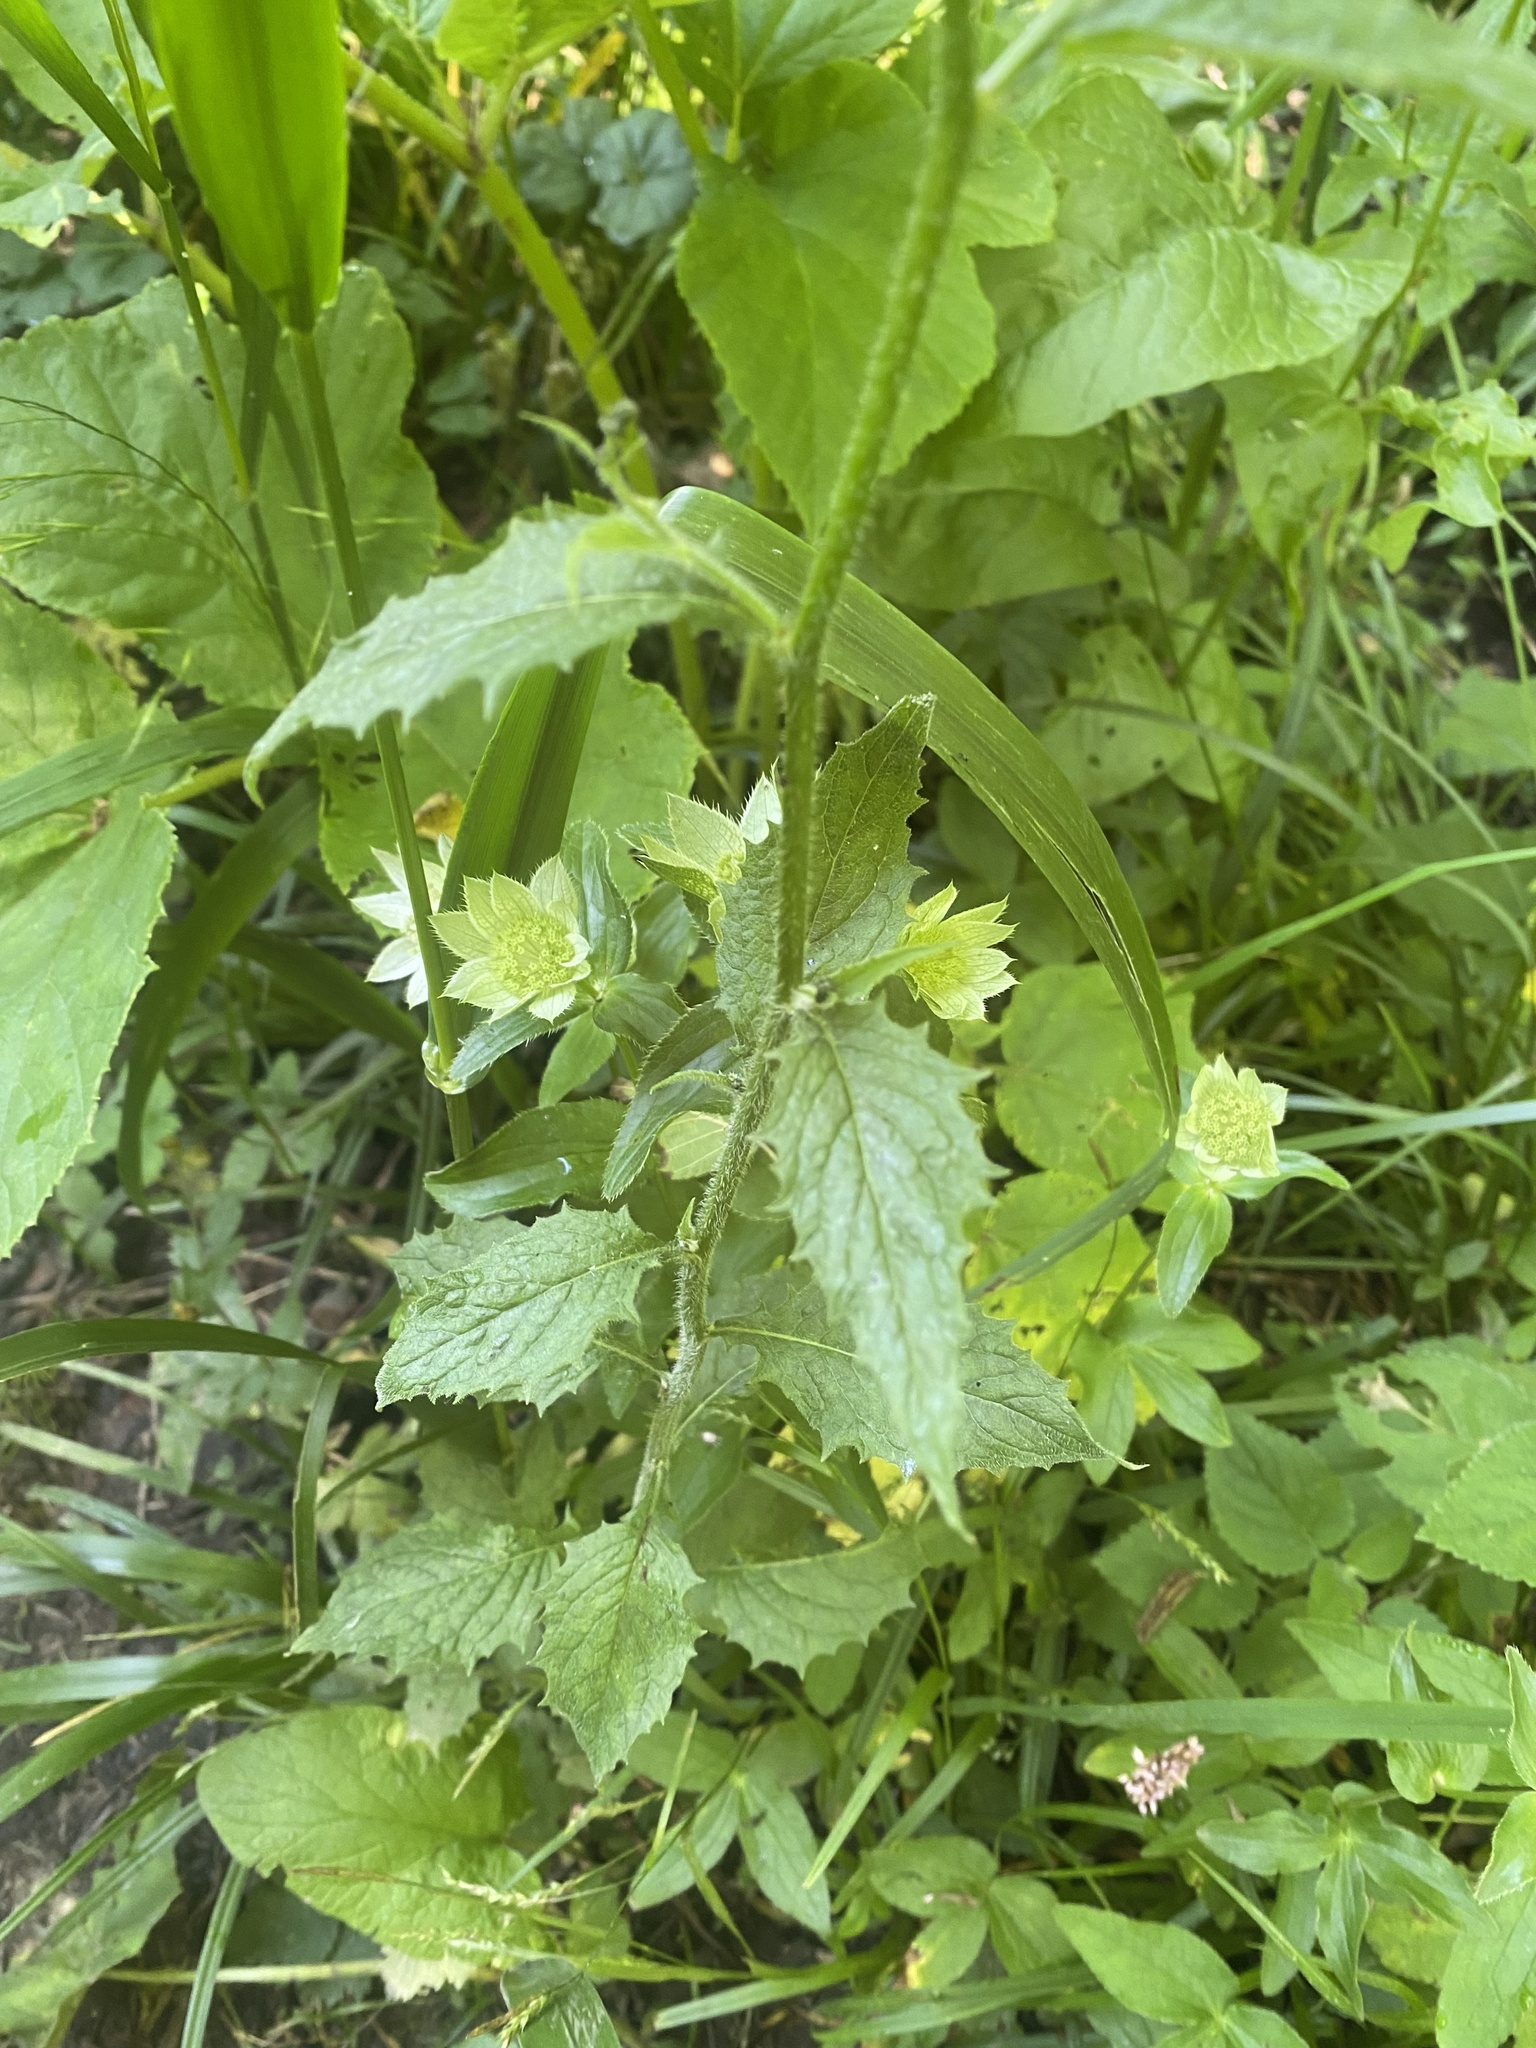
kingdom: Plantae
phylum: Tracheophyta
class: Magnoliopsida
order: Apiales
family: Apiaceae
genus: Astrantia
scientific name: Astrantia maxima
